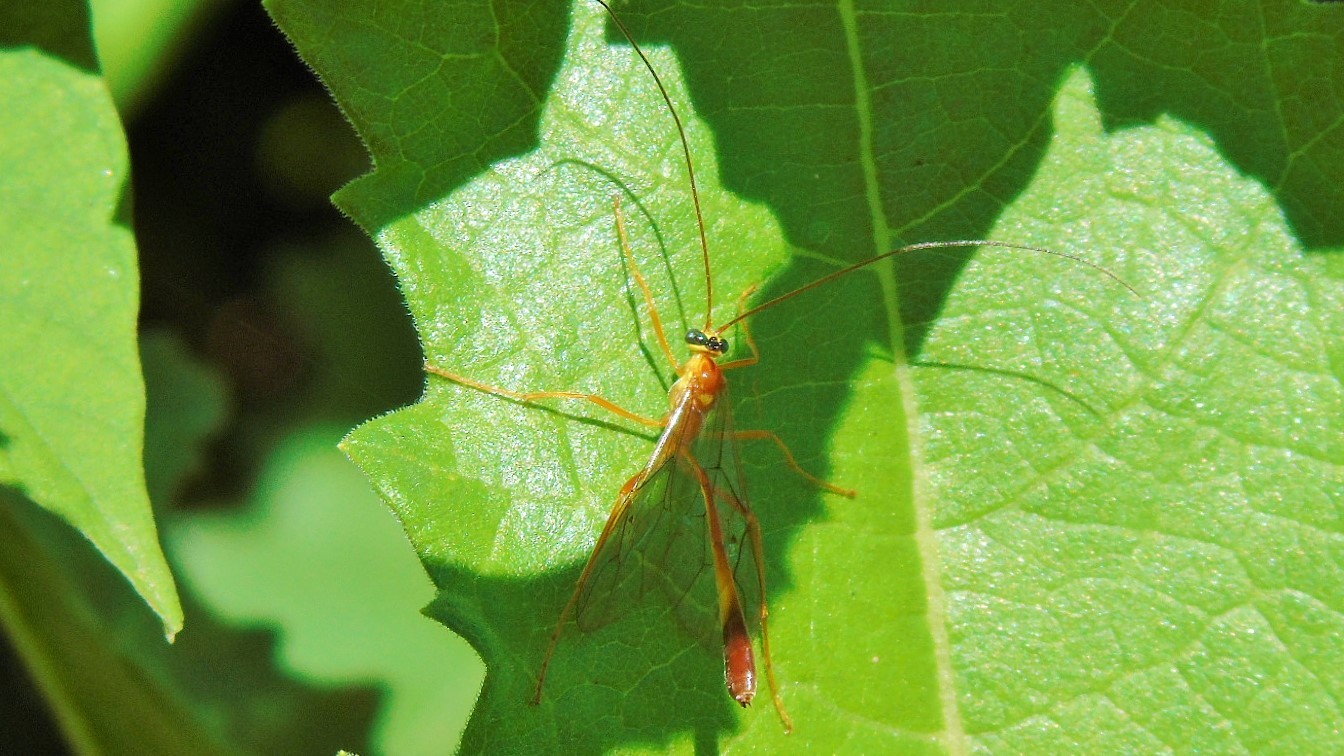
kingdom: Animalia
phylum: Arthropoda
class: Insecta
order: Hymenoptera
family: Ichneumonidae
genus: Enicospilus
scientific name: Enicospilus
